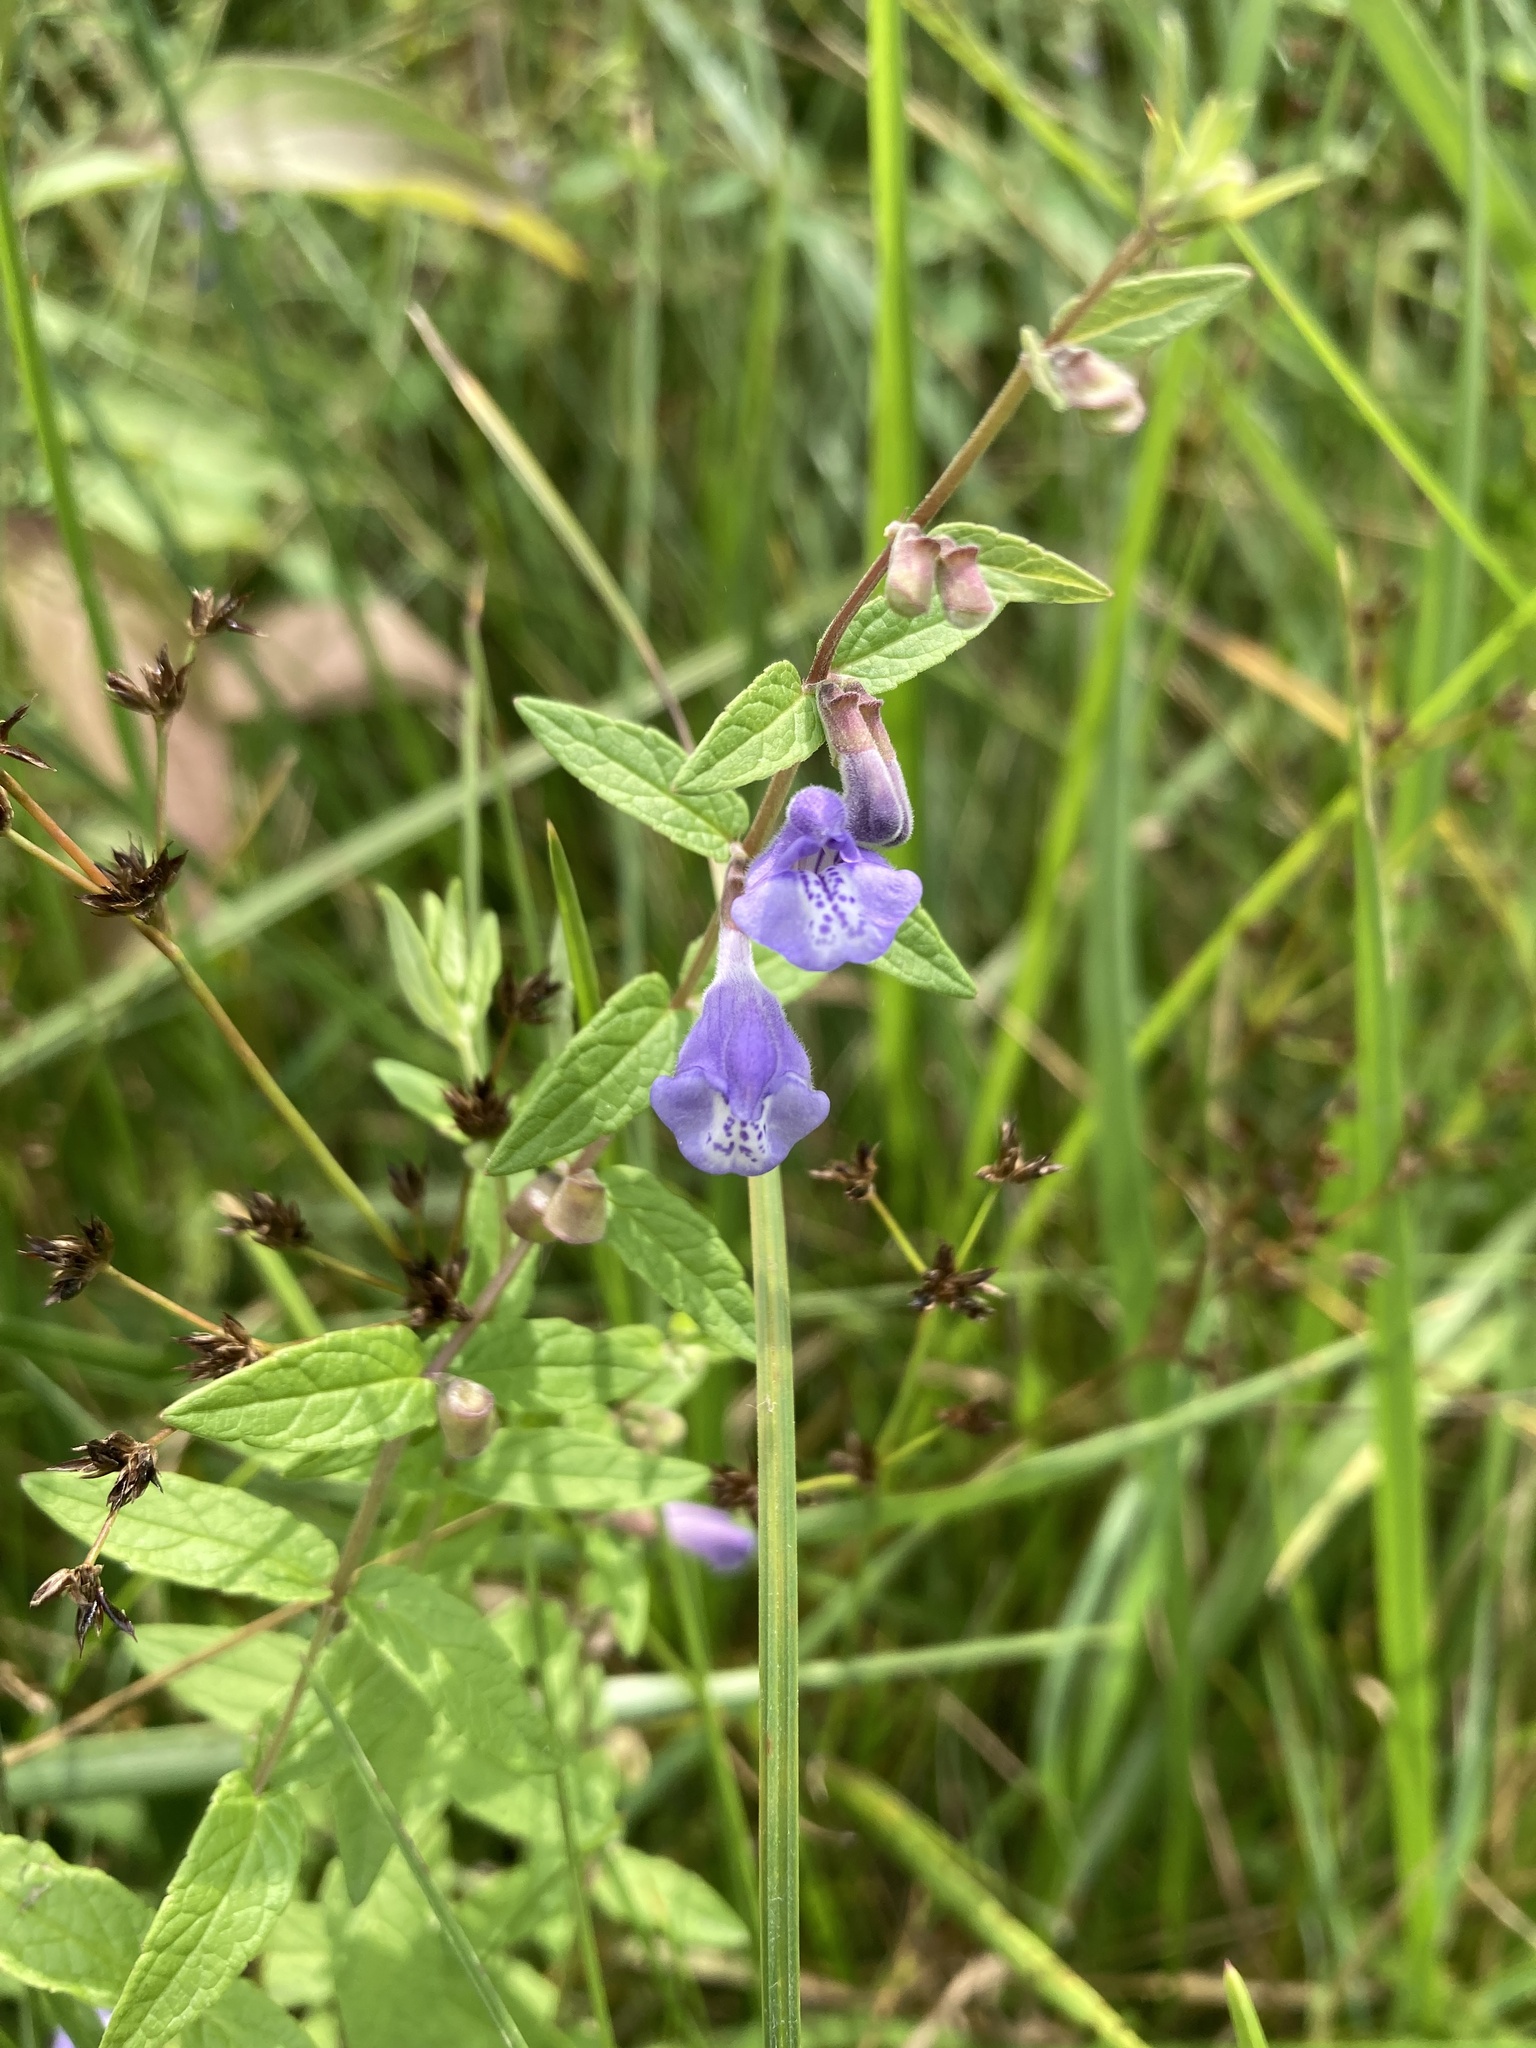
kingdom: Plantae
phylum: Tracheophyta
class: Magnoliopsida
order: Lamiales
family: Lamiaceae
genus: Scutellaria
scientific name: Scutellaria galericulata
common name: Skullcap
